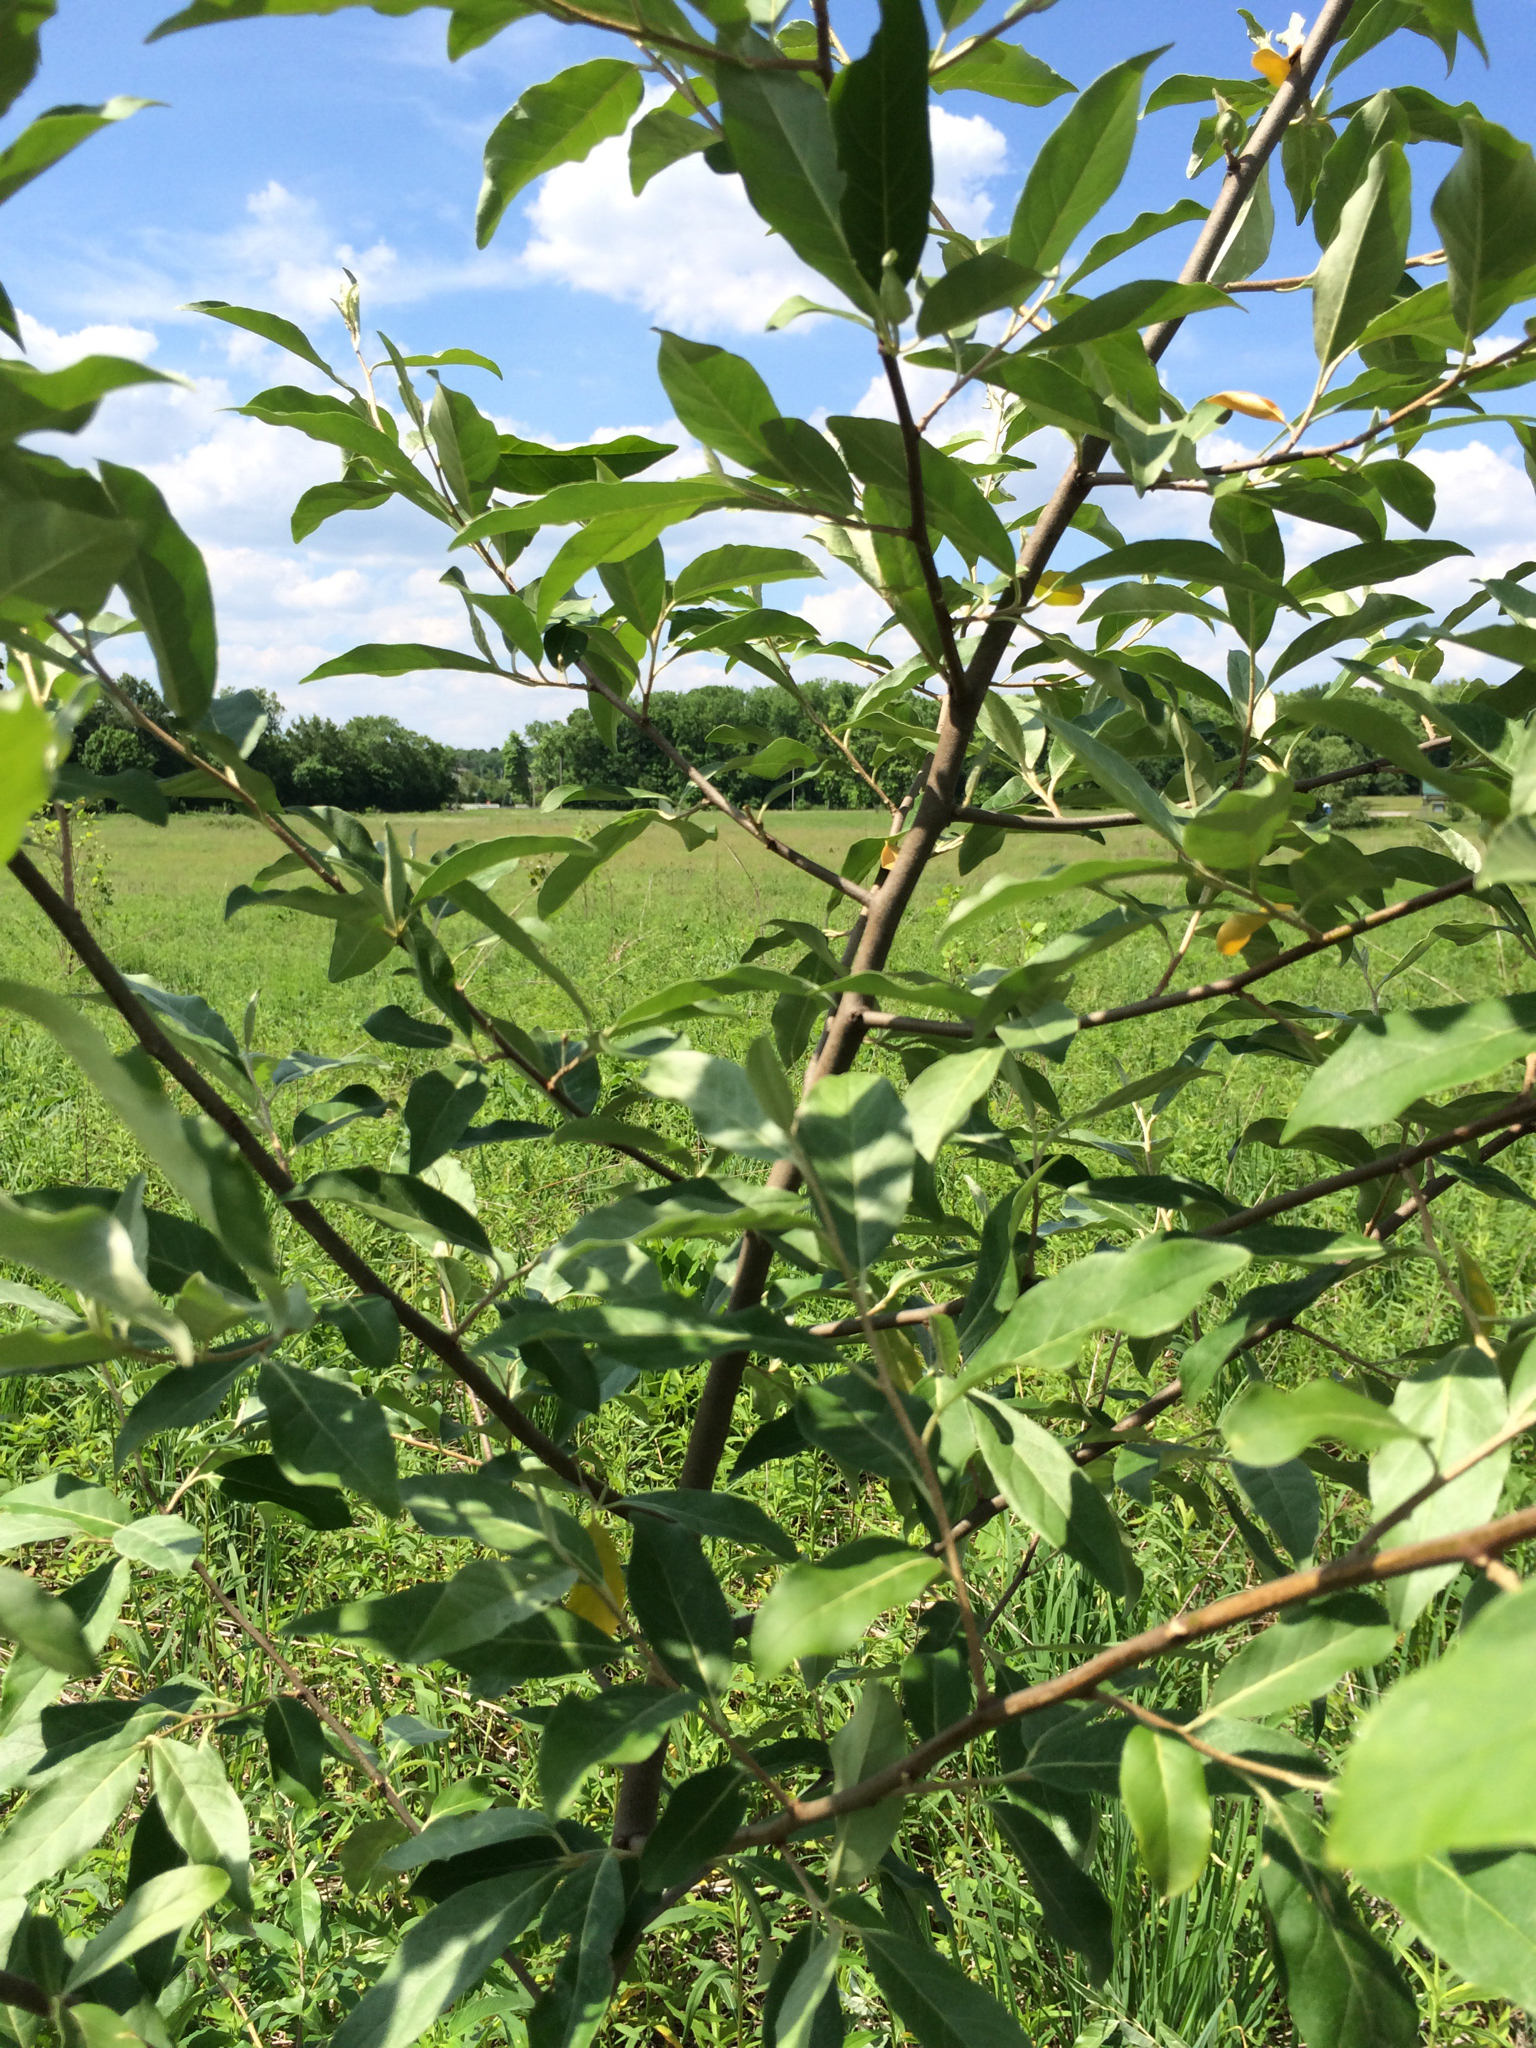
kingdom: Plantae
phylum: Tracheophyta
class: Magnoliopsida
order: Rosales
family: Elaeagnaceae
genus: Elaeagnus
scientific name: Elaeagnus umbellata
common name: Autumn olive
